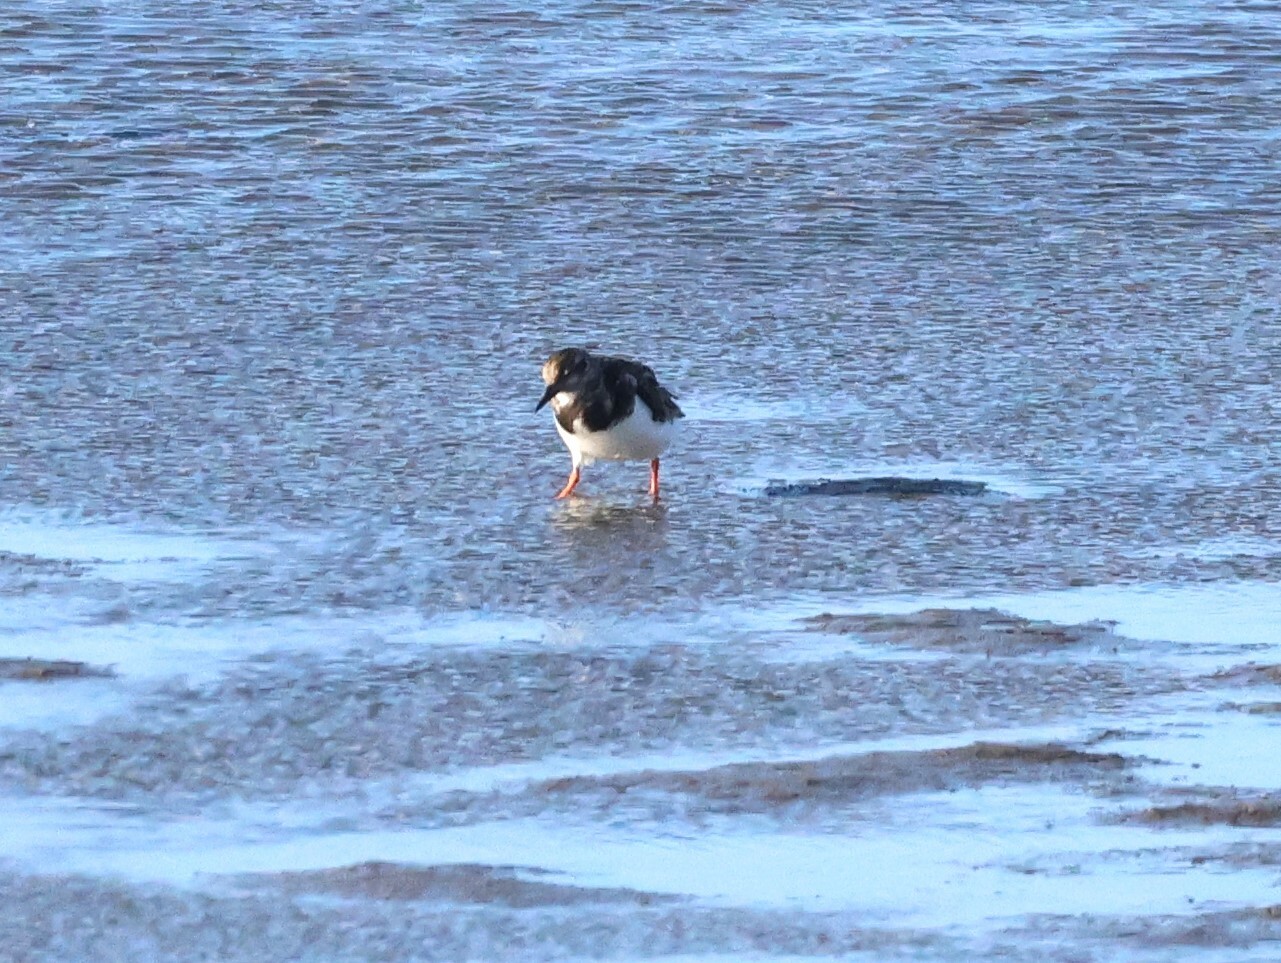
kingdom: Animalia
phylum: Chordata
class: Aves
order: Charadriiformes
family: Scolopacidae
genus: Arenaria
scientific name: Arenaria interpres
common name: Ruddy turnstone
